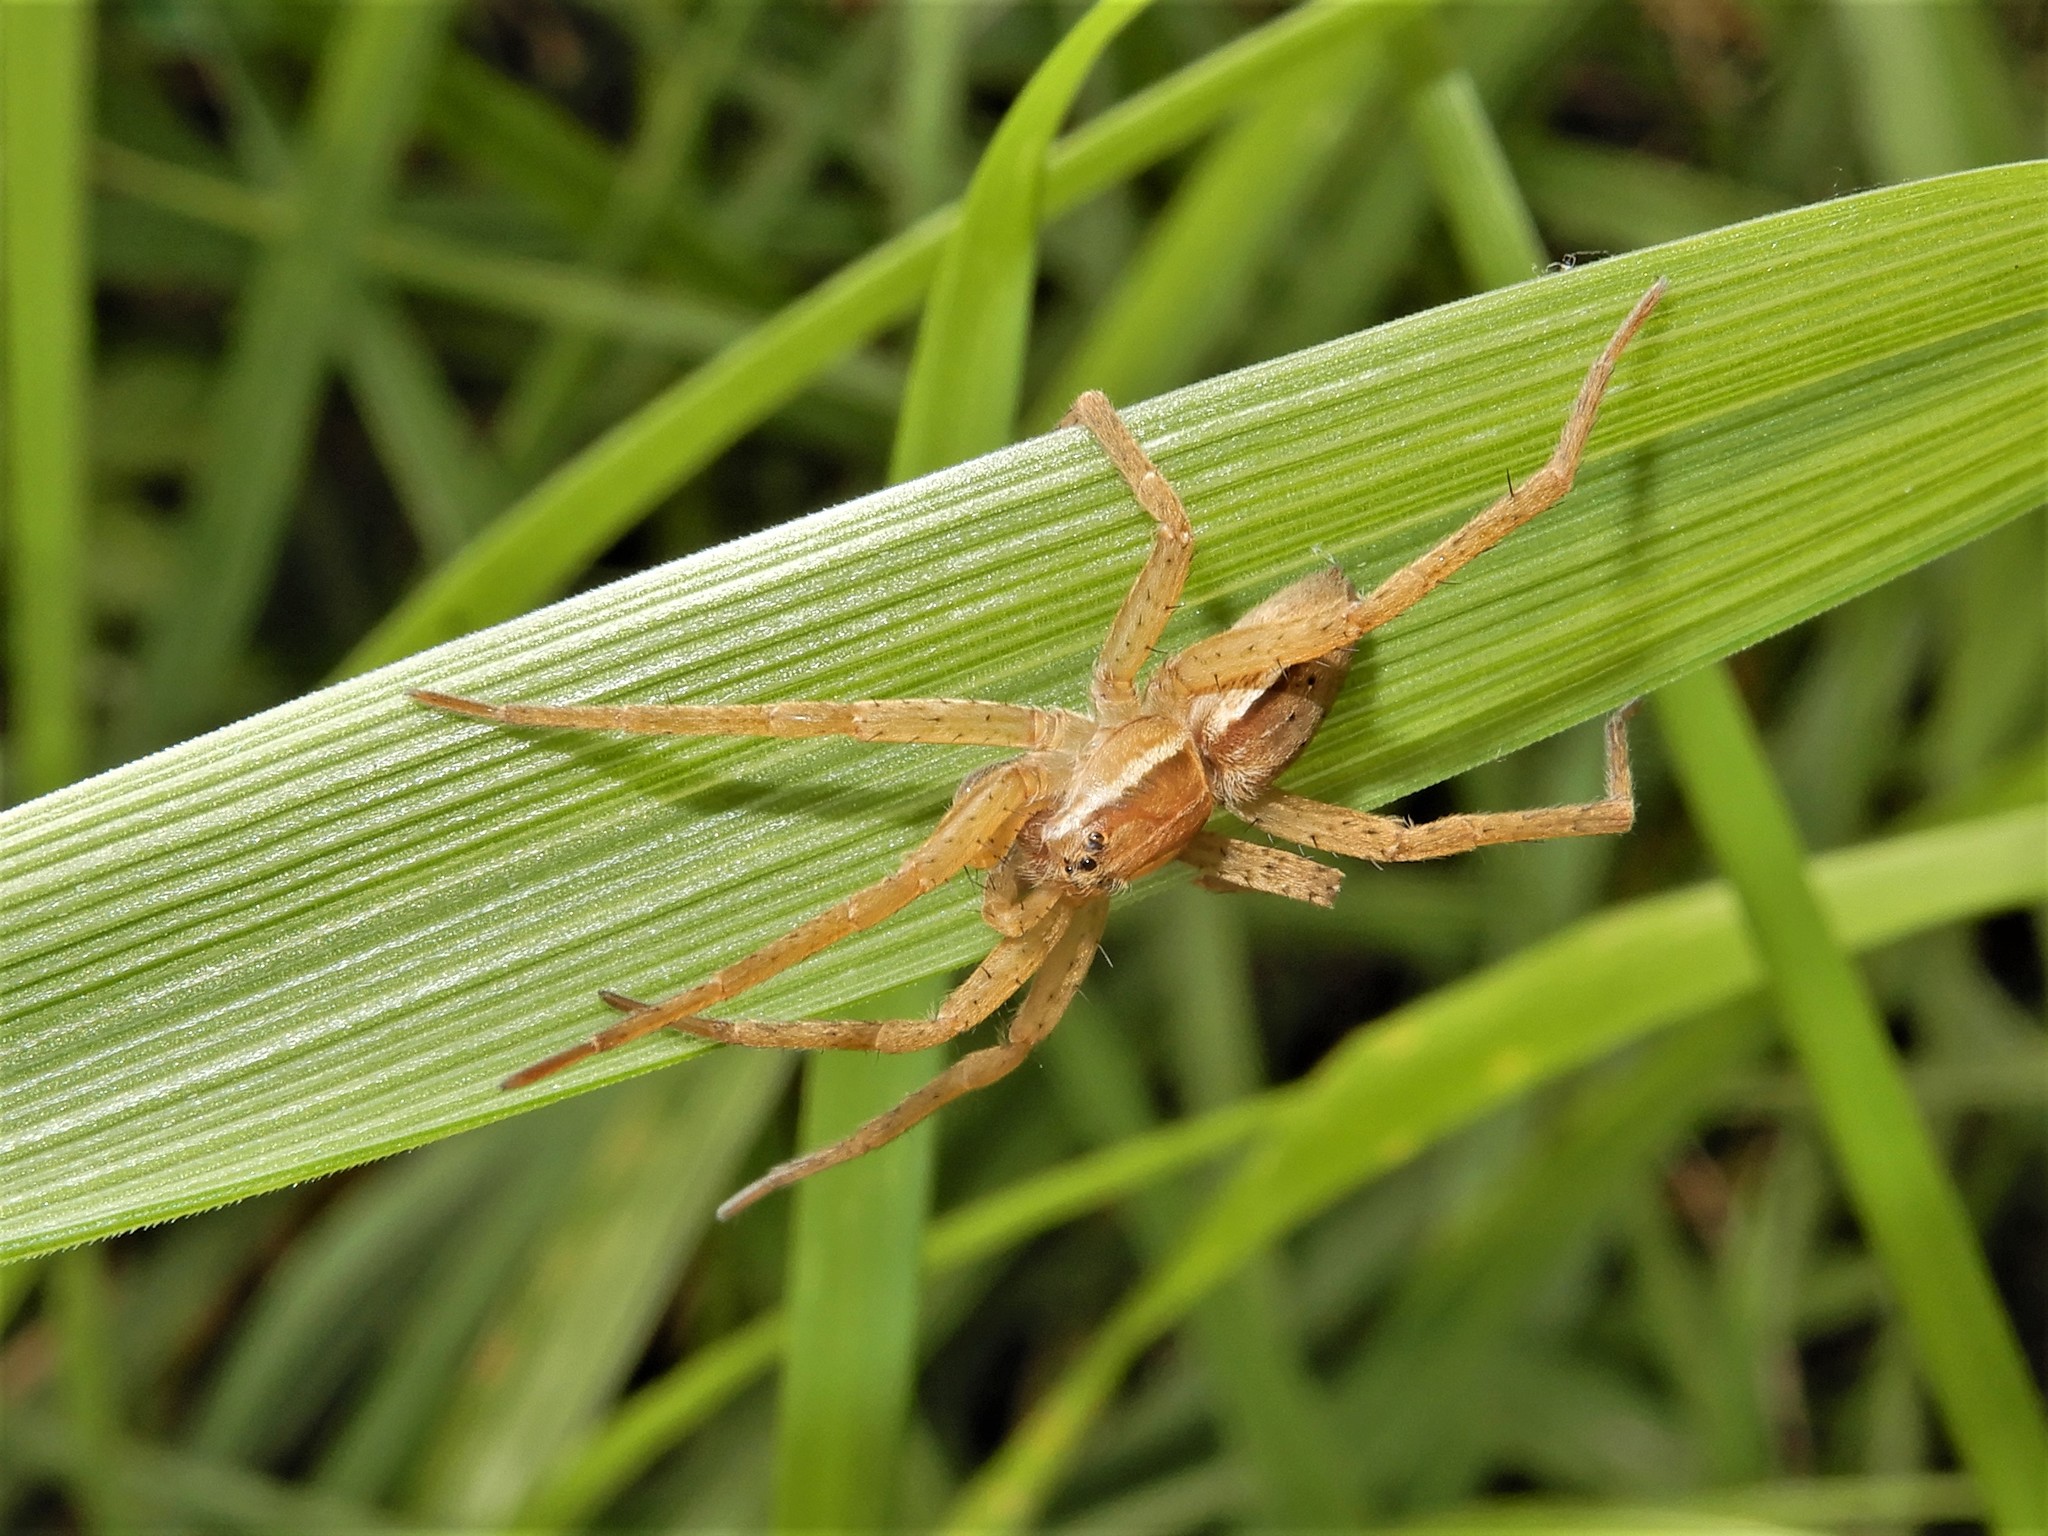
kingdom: Animalia
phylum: Arthropoda
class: Arachnida
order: Araneae
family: Pisauridae
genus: Dolomedes
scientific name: Dolomedes minor
